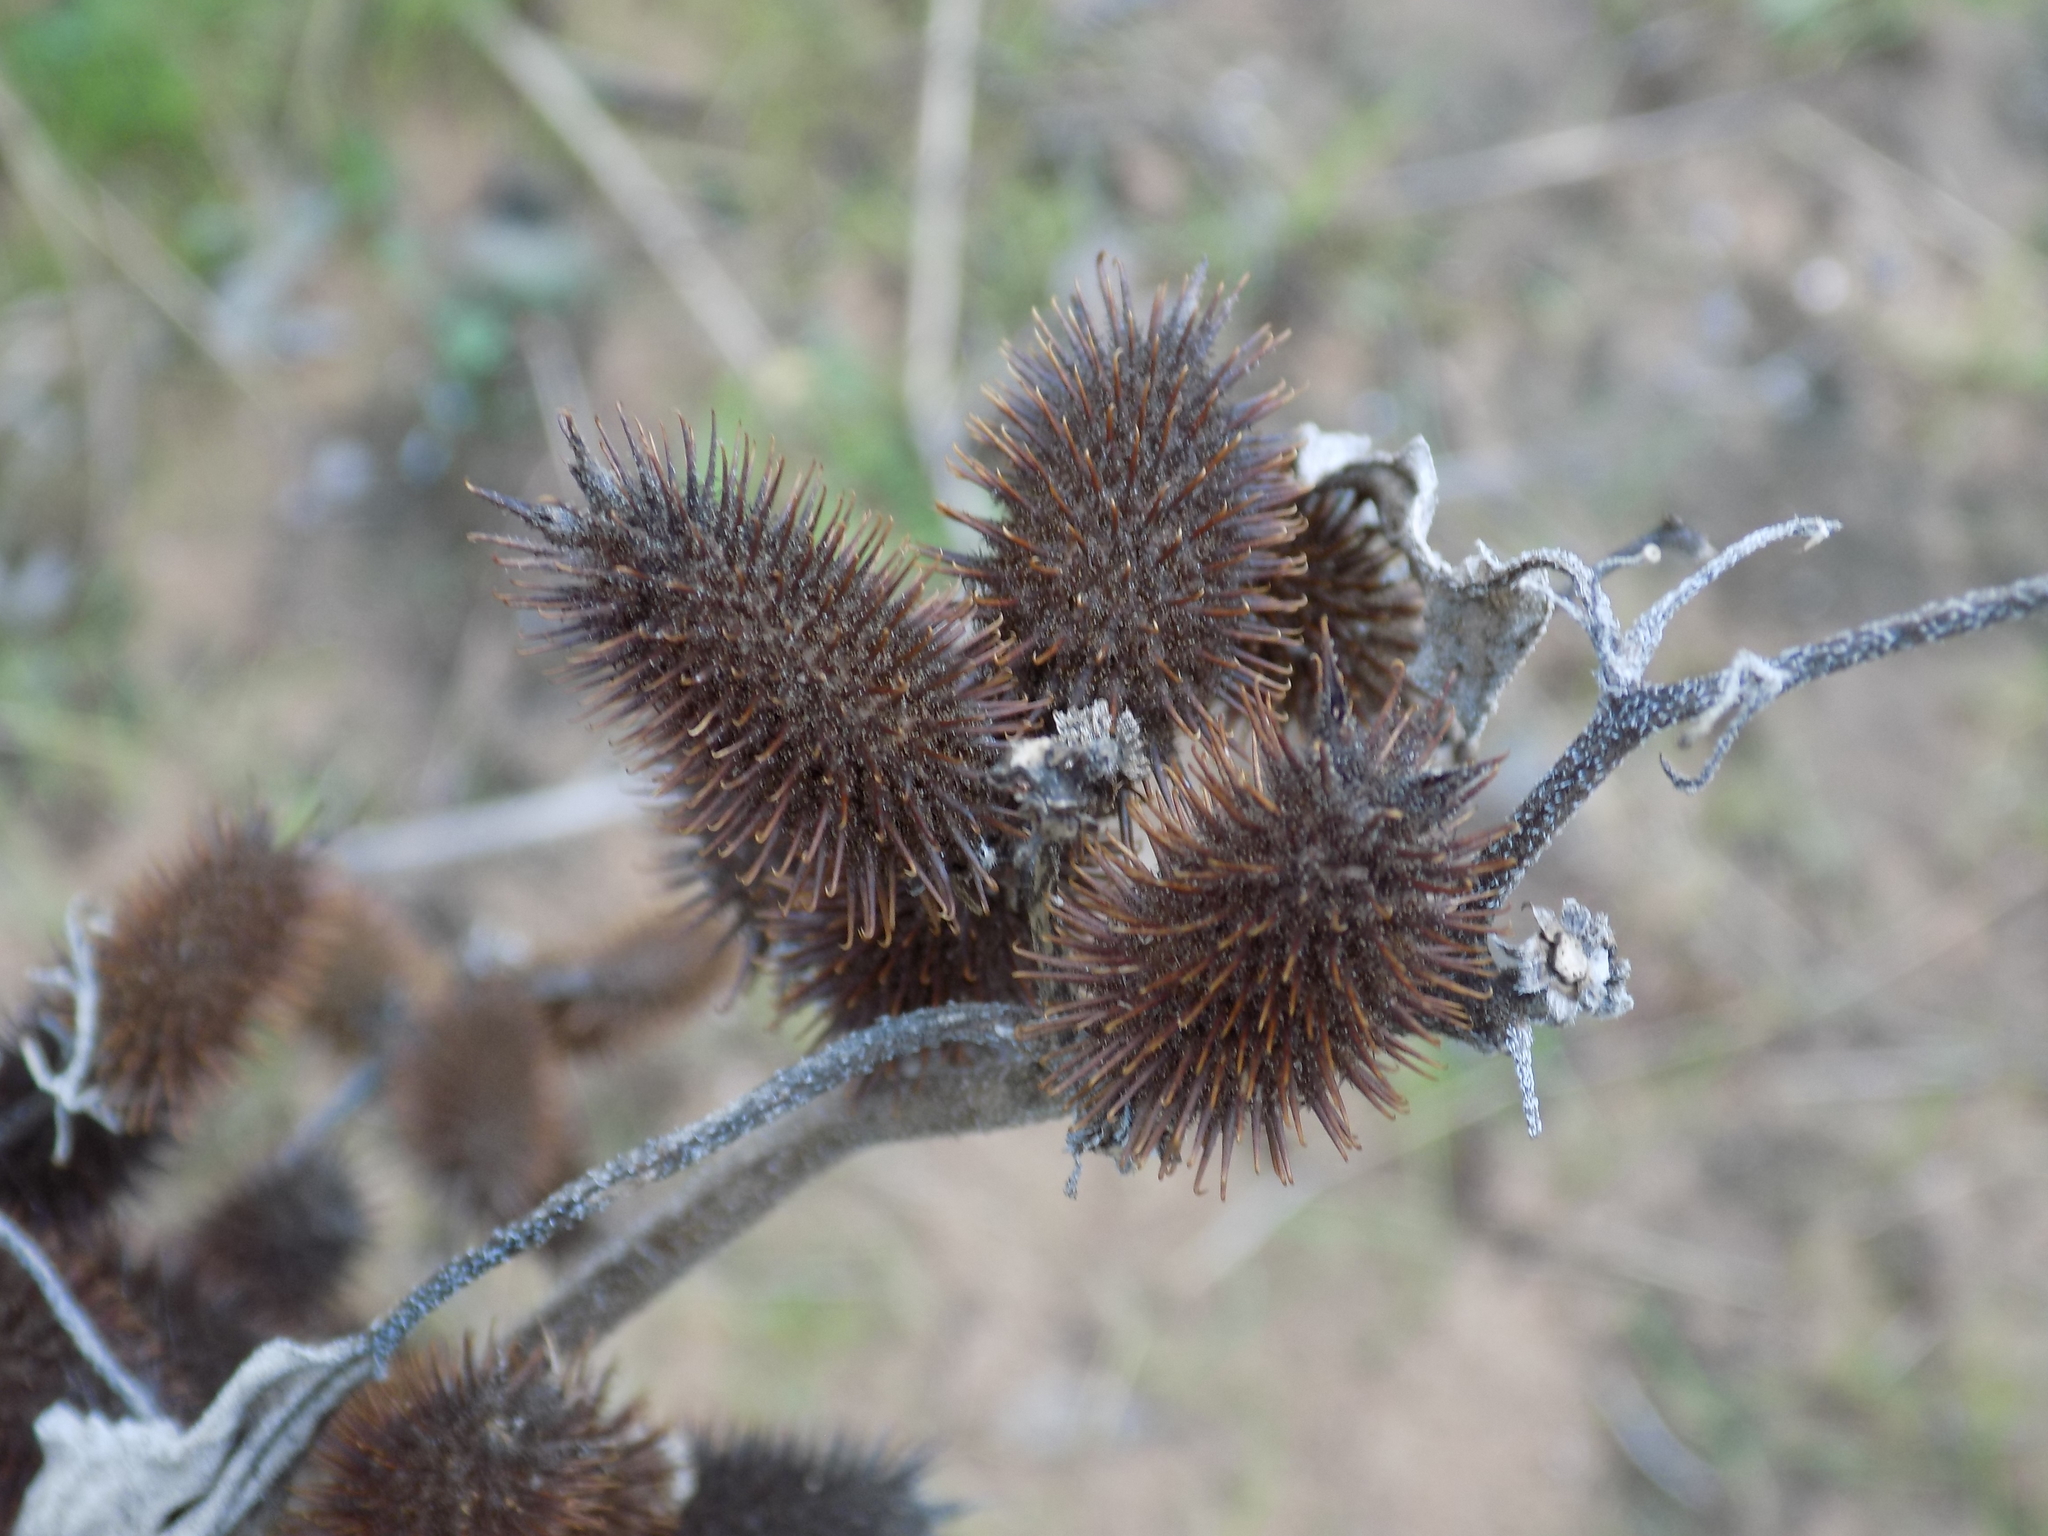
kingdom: Plantae
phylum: Tracheophyta
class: Magnoliopsida
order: Asterales
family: Asteraceae
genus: Xanthium
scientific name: Xanthium strumarium
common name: Rough cocklebur
